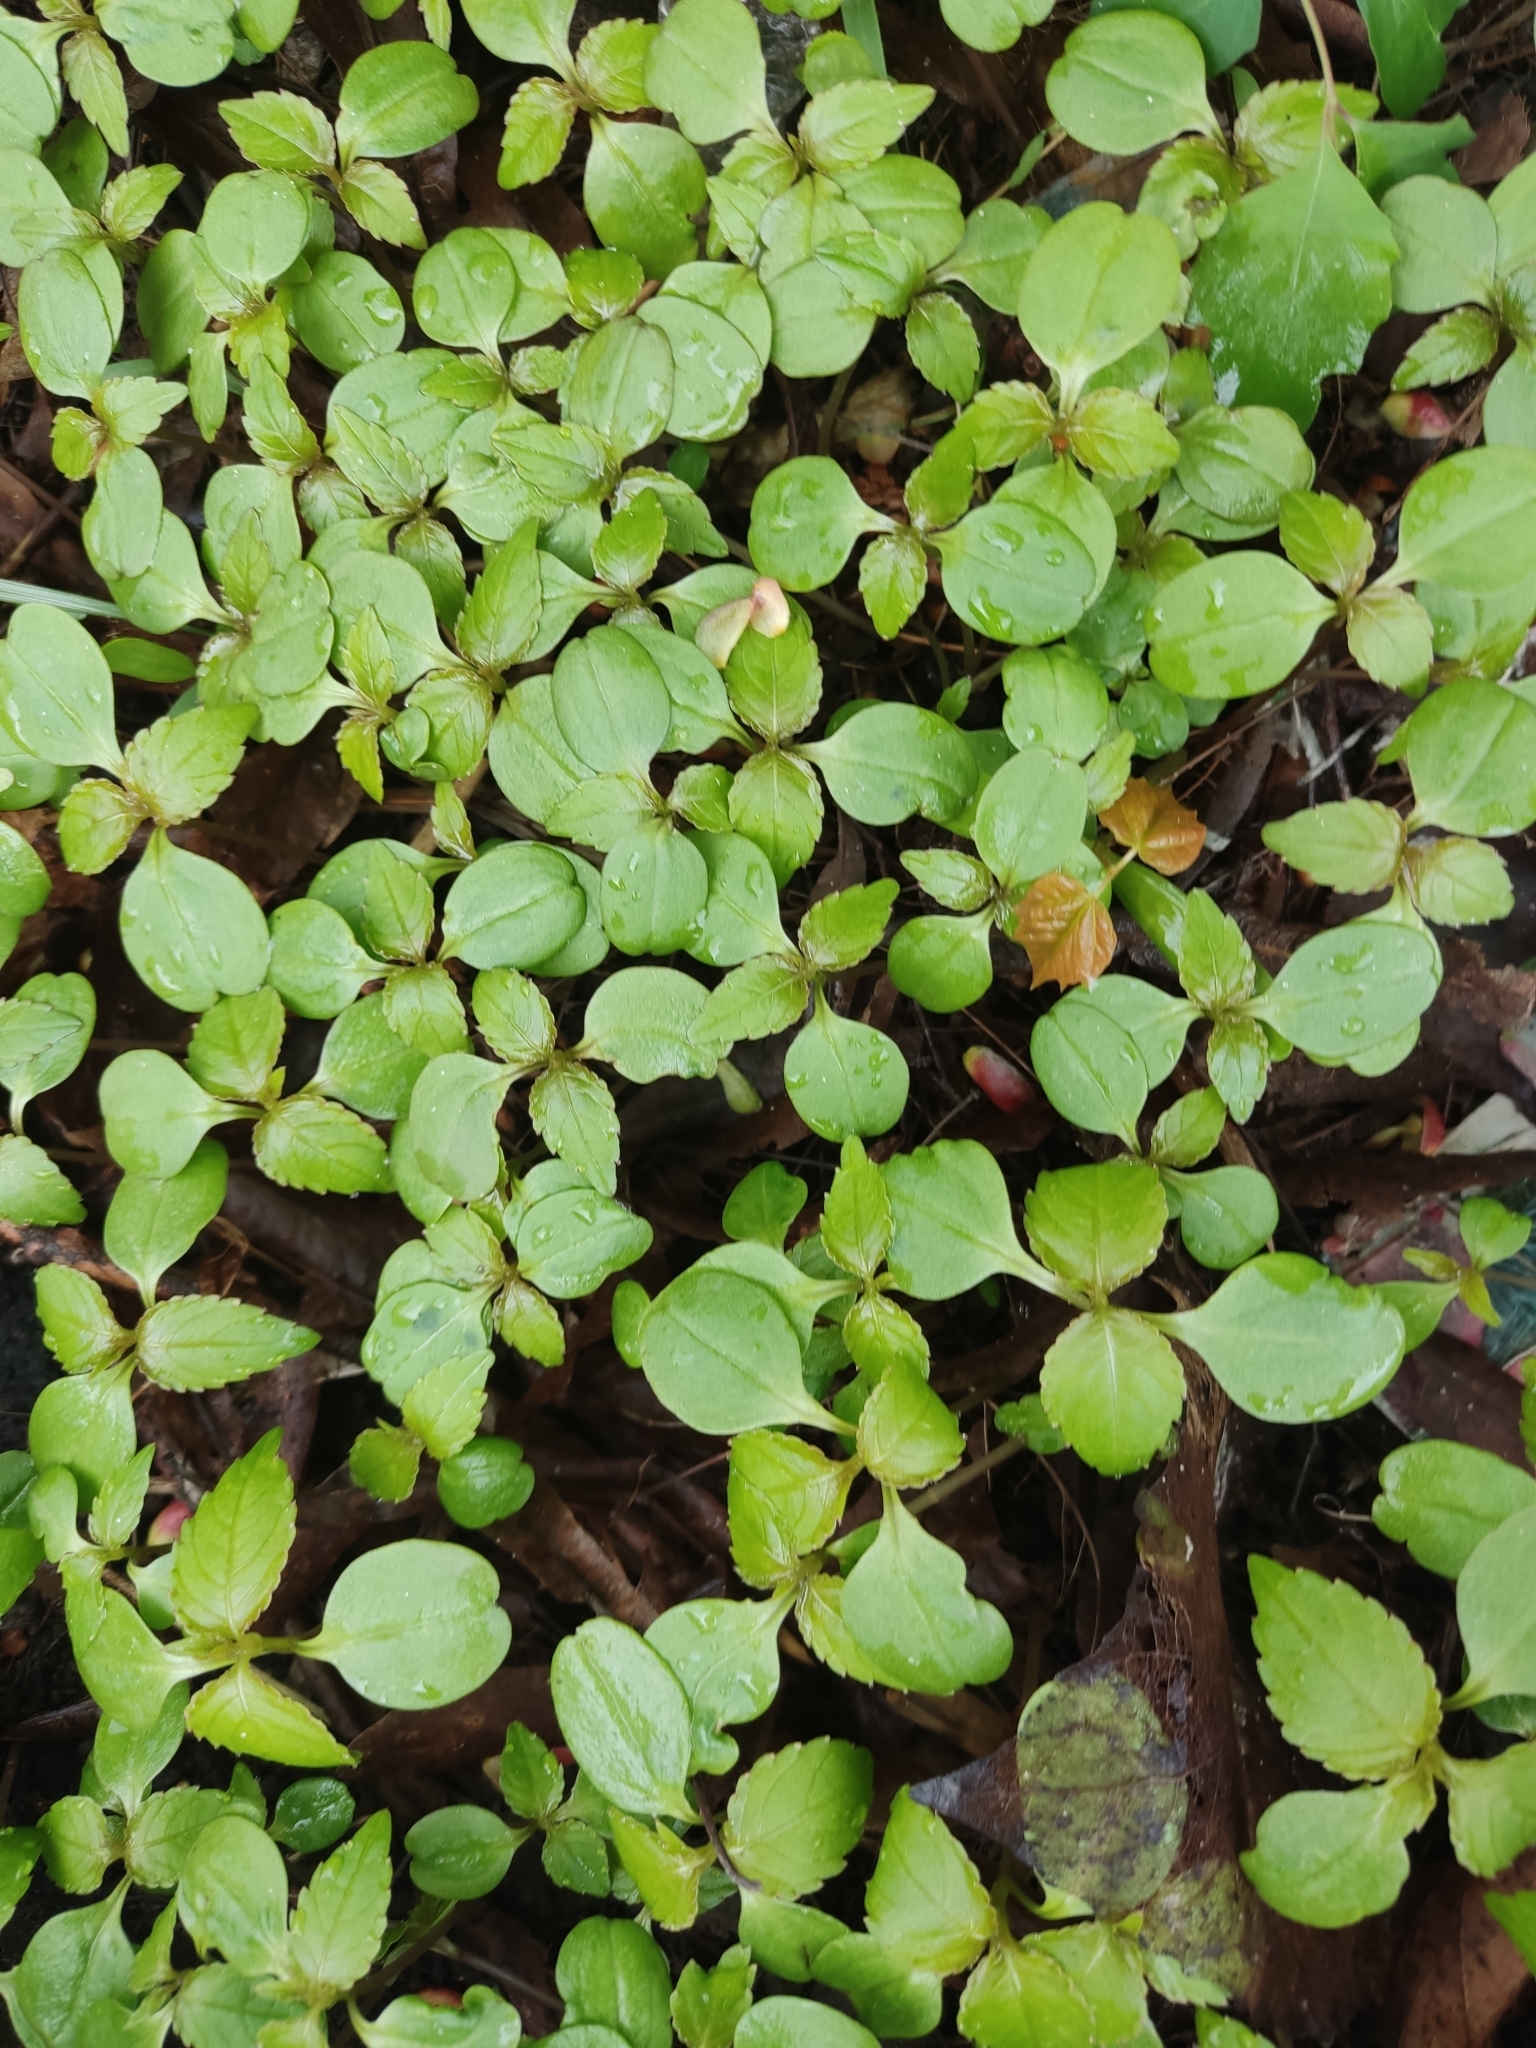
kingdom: Plantae
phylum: Tracheophyta
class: Magnoliopsida
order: Ericales
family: Balsaminaceae
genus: Impatiens
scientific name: Impatiens parviflora
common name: Small balsam
